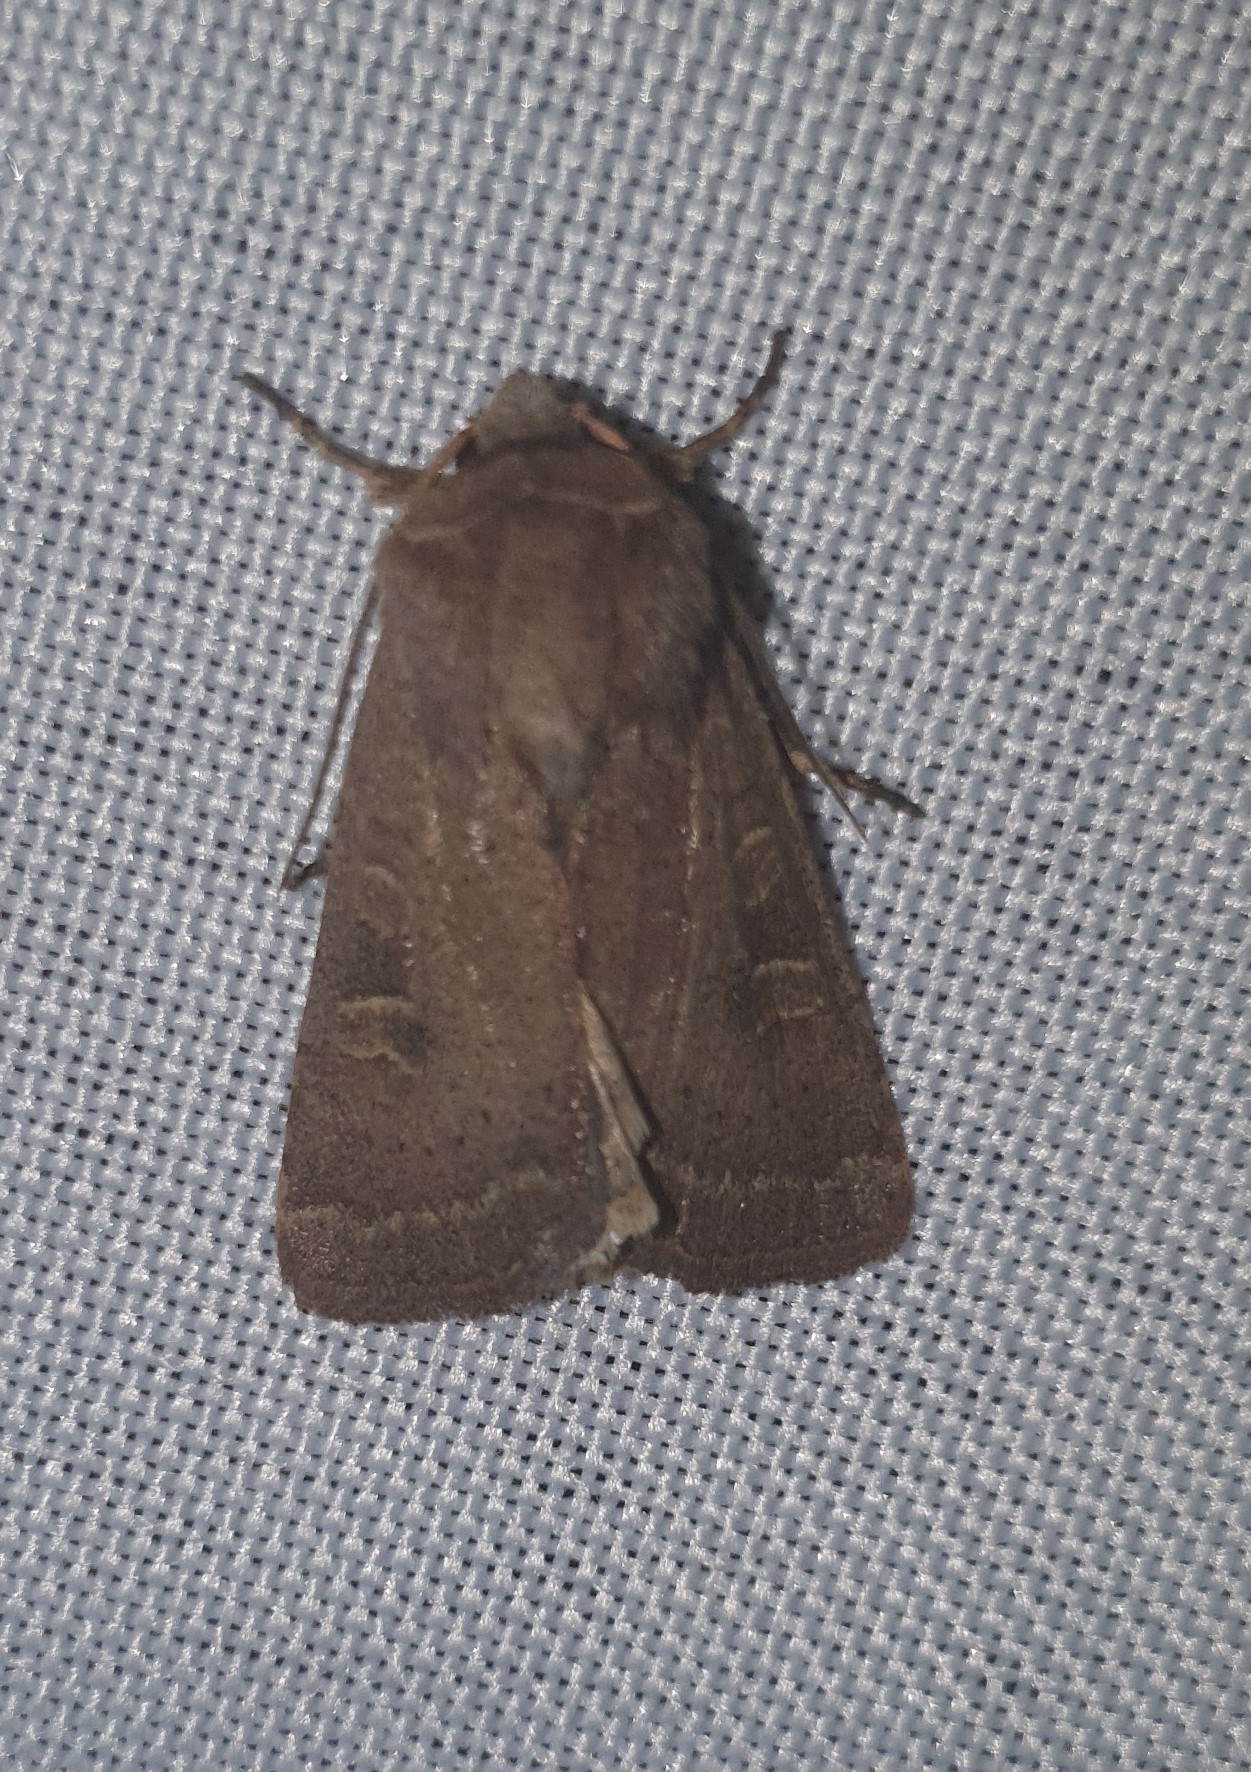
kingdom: Animalia
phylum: Arthropoda
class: Insecta
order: Lepidoptera
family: Noctuidae
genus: Xestia
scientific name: Xestia xanthographa
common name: Square-spot rustic
